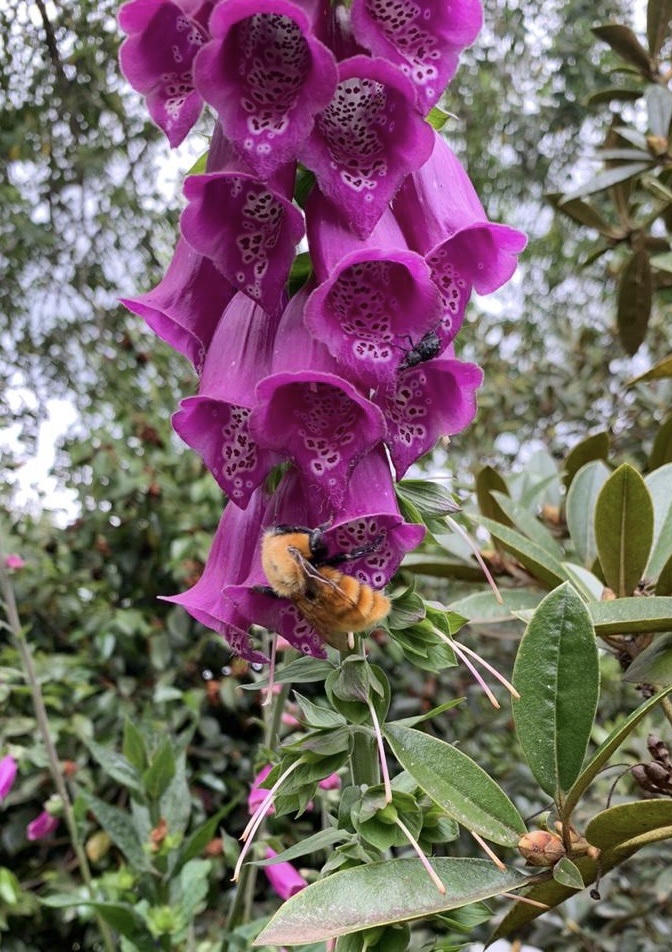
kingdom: Animalia
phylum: Arthropoda
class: Insecta
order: Hymenoptera
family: Apidae
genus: Bombus
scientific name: Bombus dahlbomii
